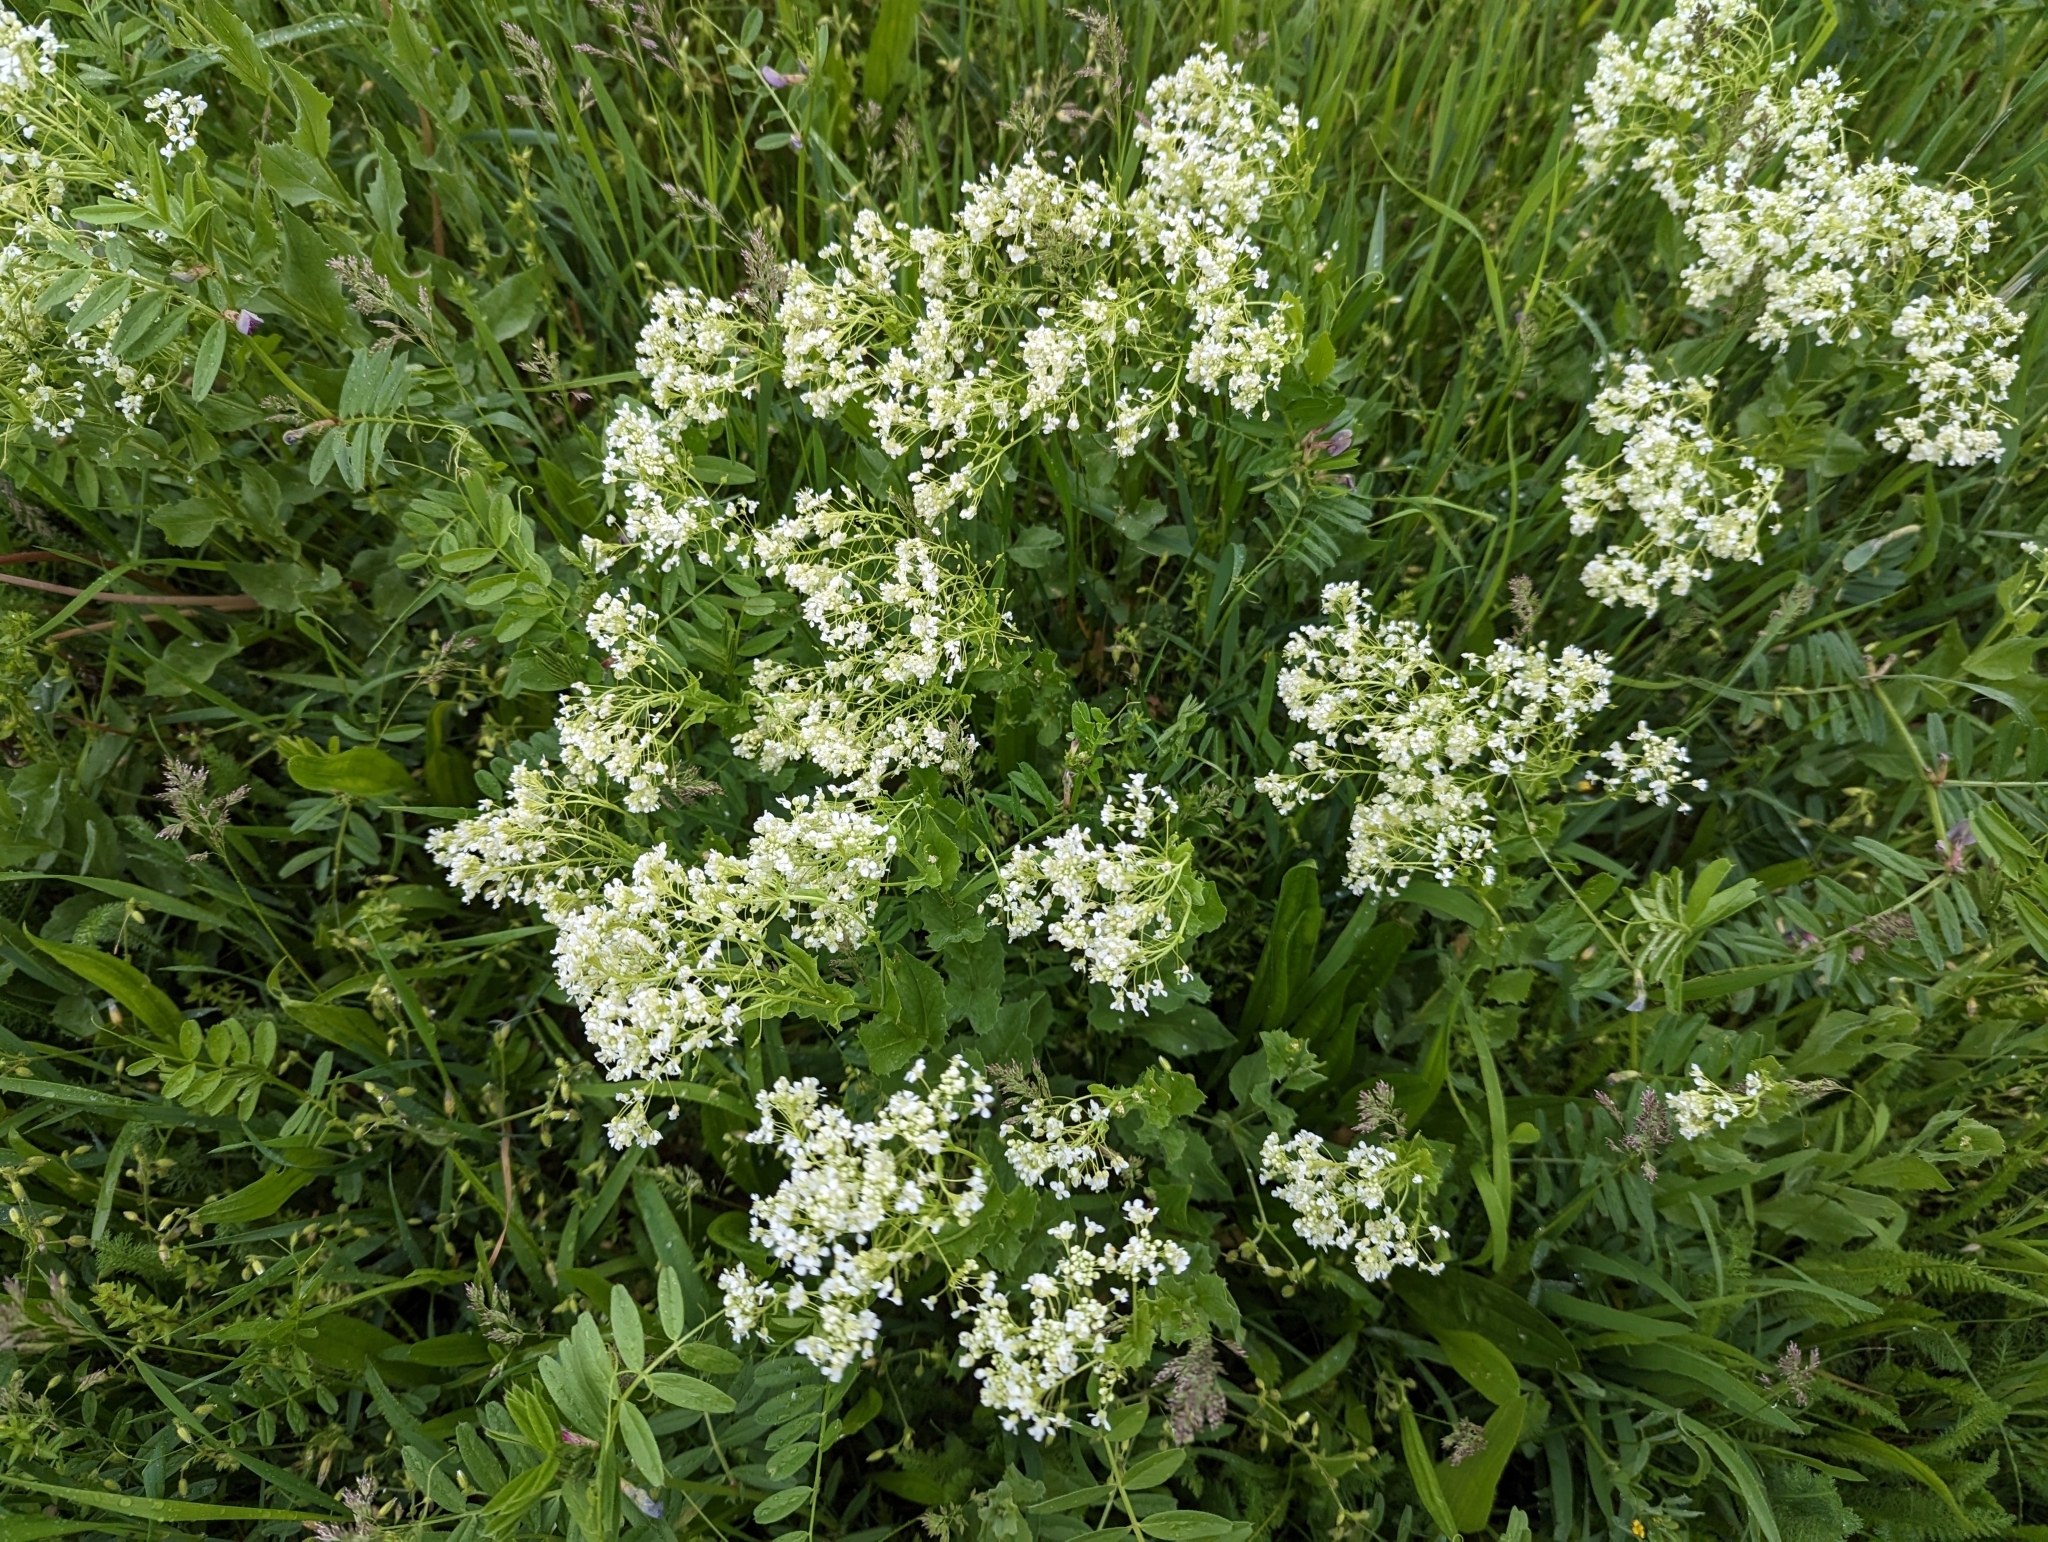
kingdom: Plantae
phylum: Tracheophyta
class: Magnoliopsida
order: Brassicales
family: Brassicaceae
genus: Lepidium
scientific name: Lepidium draba
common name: Hoary cress
